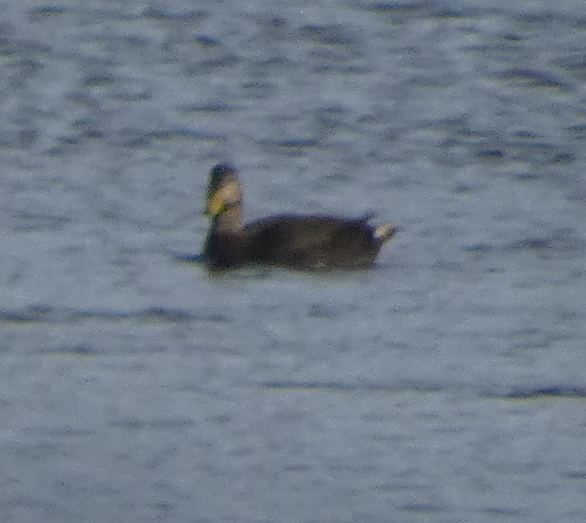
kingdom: Animalia
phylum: Chordata
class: Aves
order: Anseriformes
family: Anatidae
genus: Anas
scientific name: Anas rubripes
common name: American black duck
